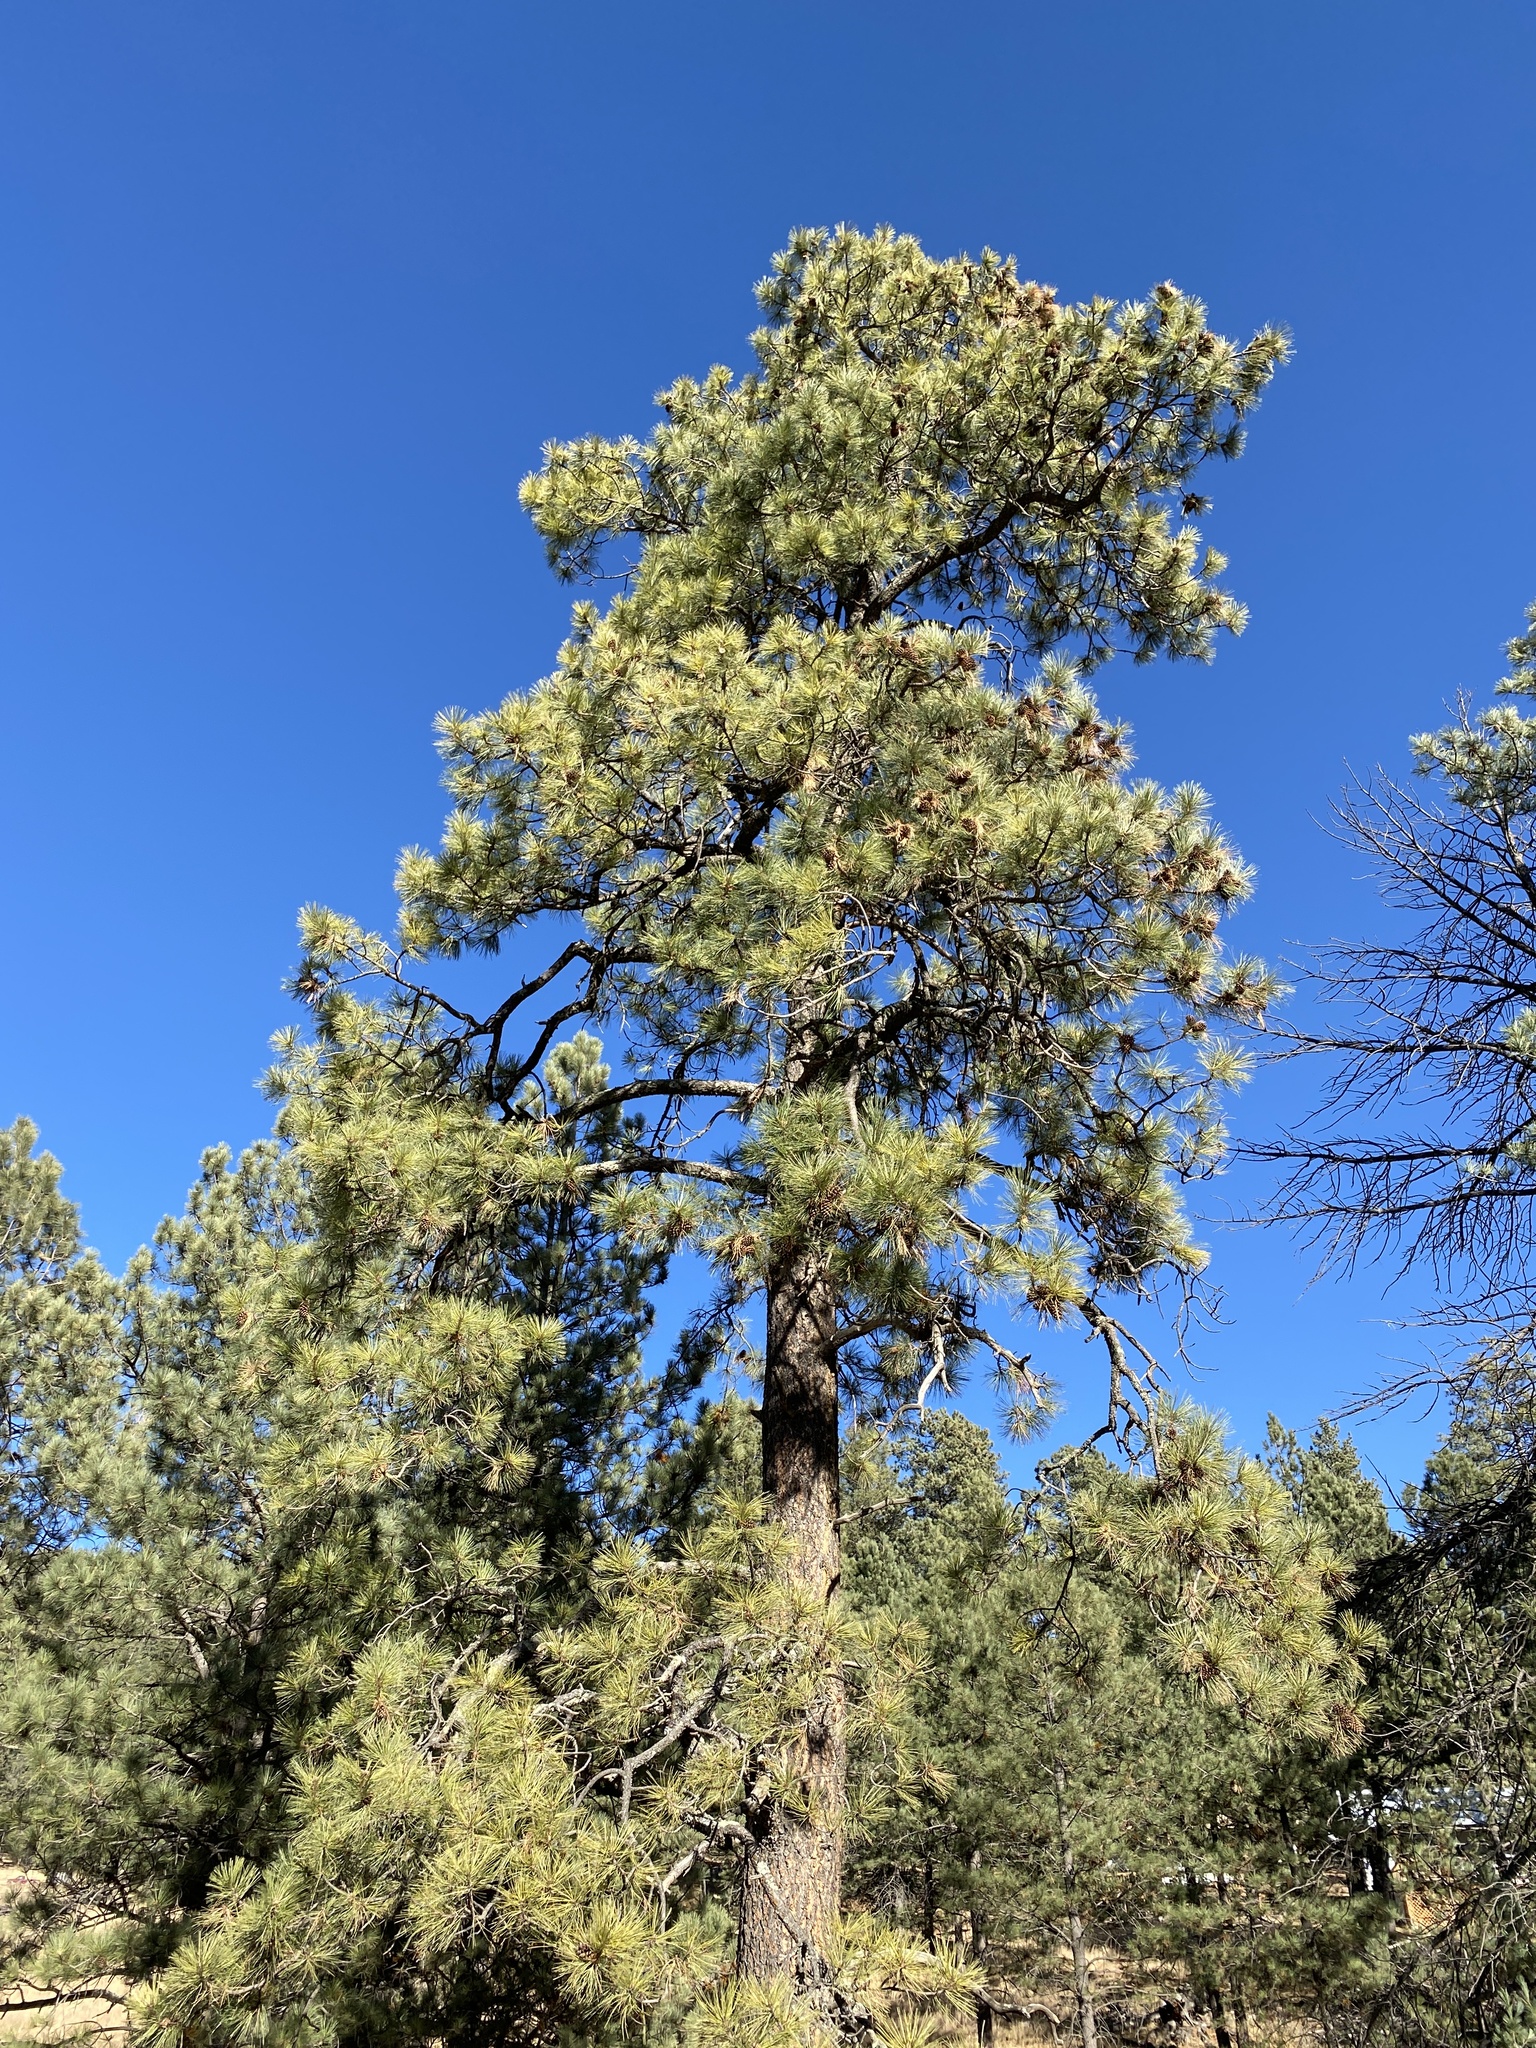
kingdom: Plantae
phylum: Tracheophyta
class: Pinopsida
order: Pinales
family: Pinaceae
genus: Pinus
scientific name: Pinus ponderosa
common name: Western yellow-pine
